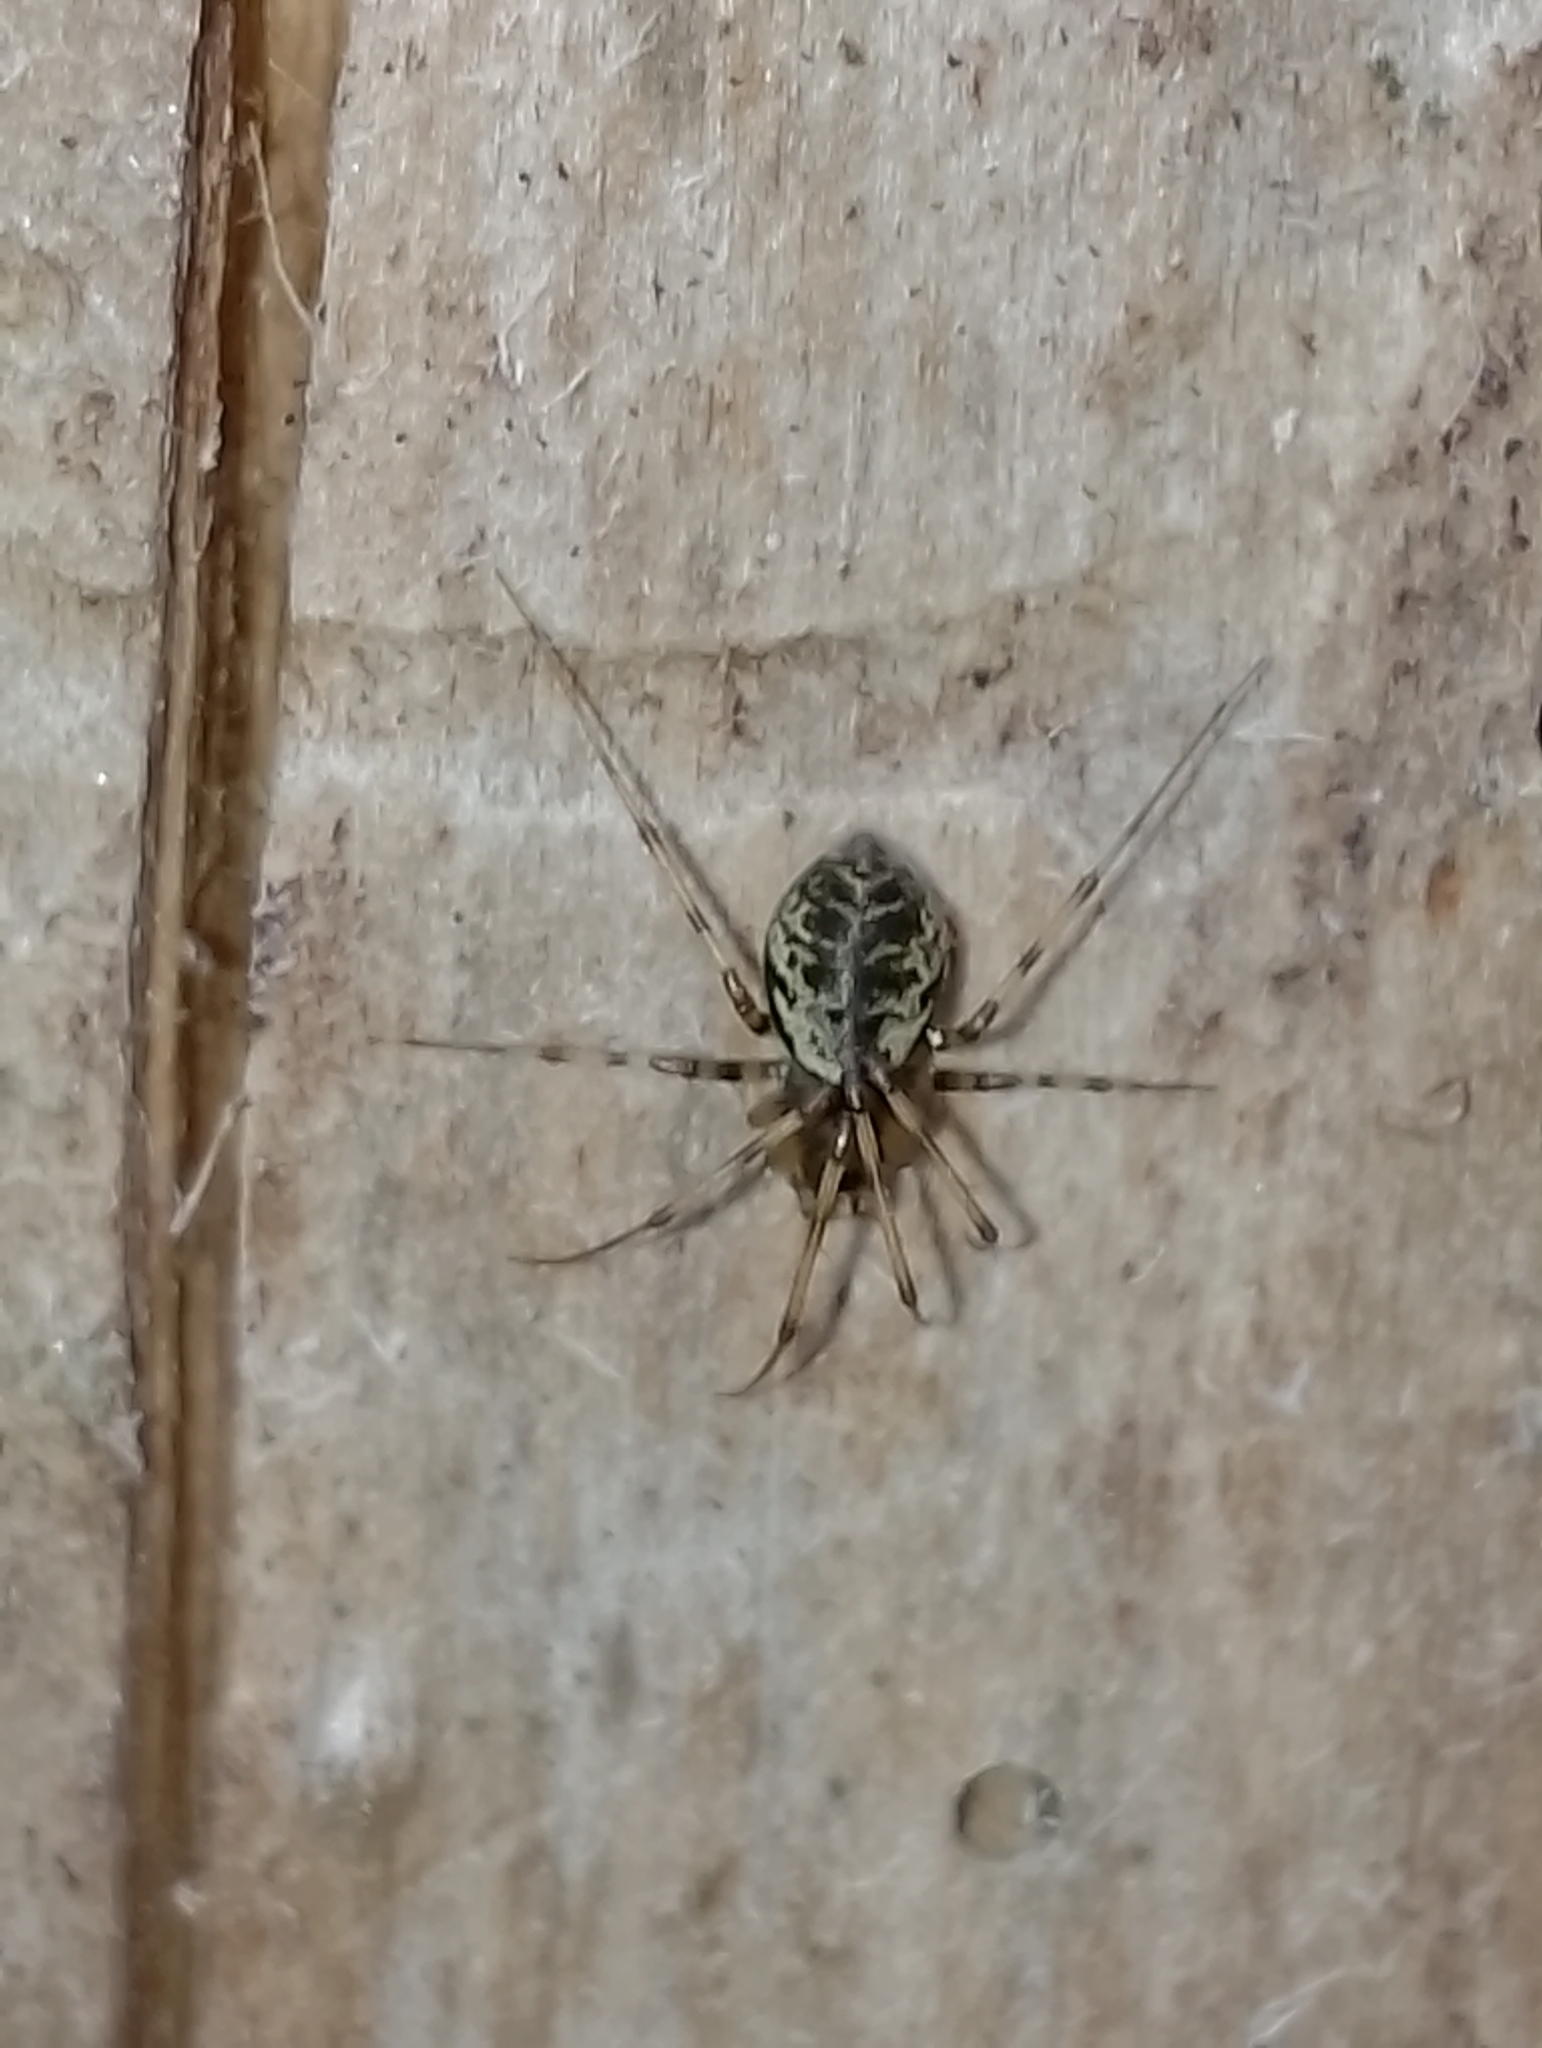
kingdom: Animalia
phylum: Arthropoda
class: Arachnida
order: Araneae
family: Linyphiidae
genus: Drapetisca
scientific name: Drapetisca socialis
